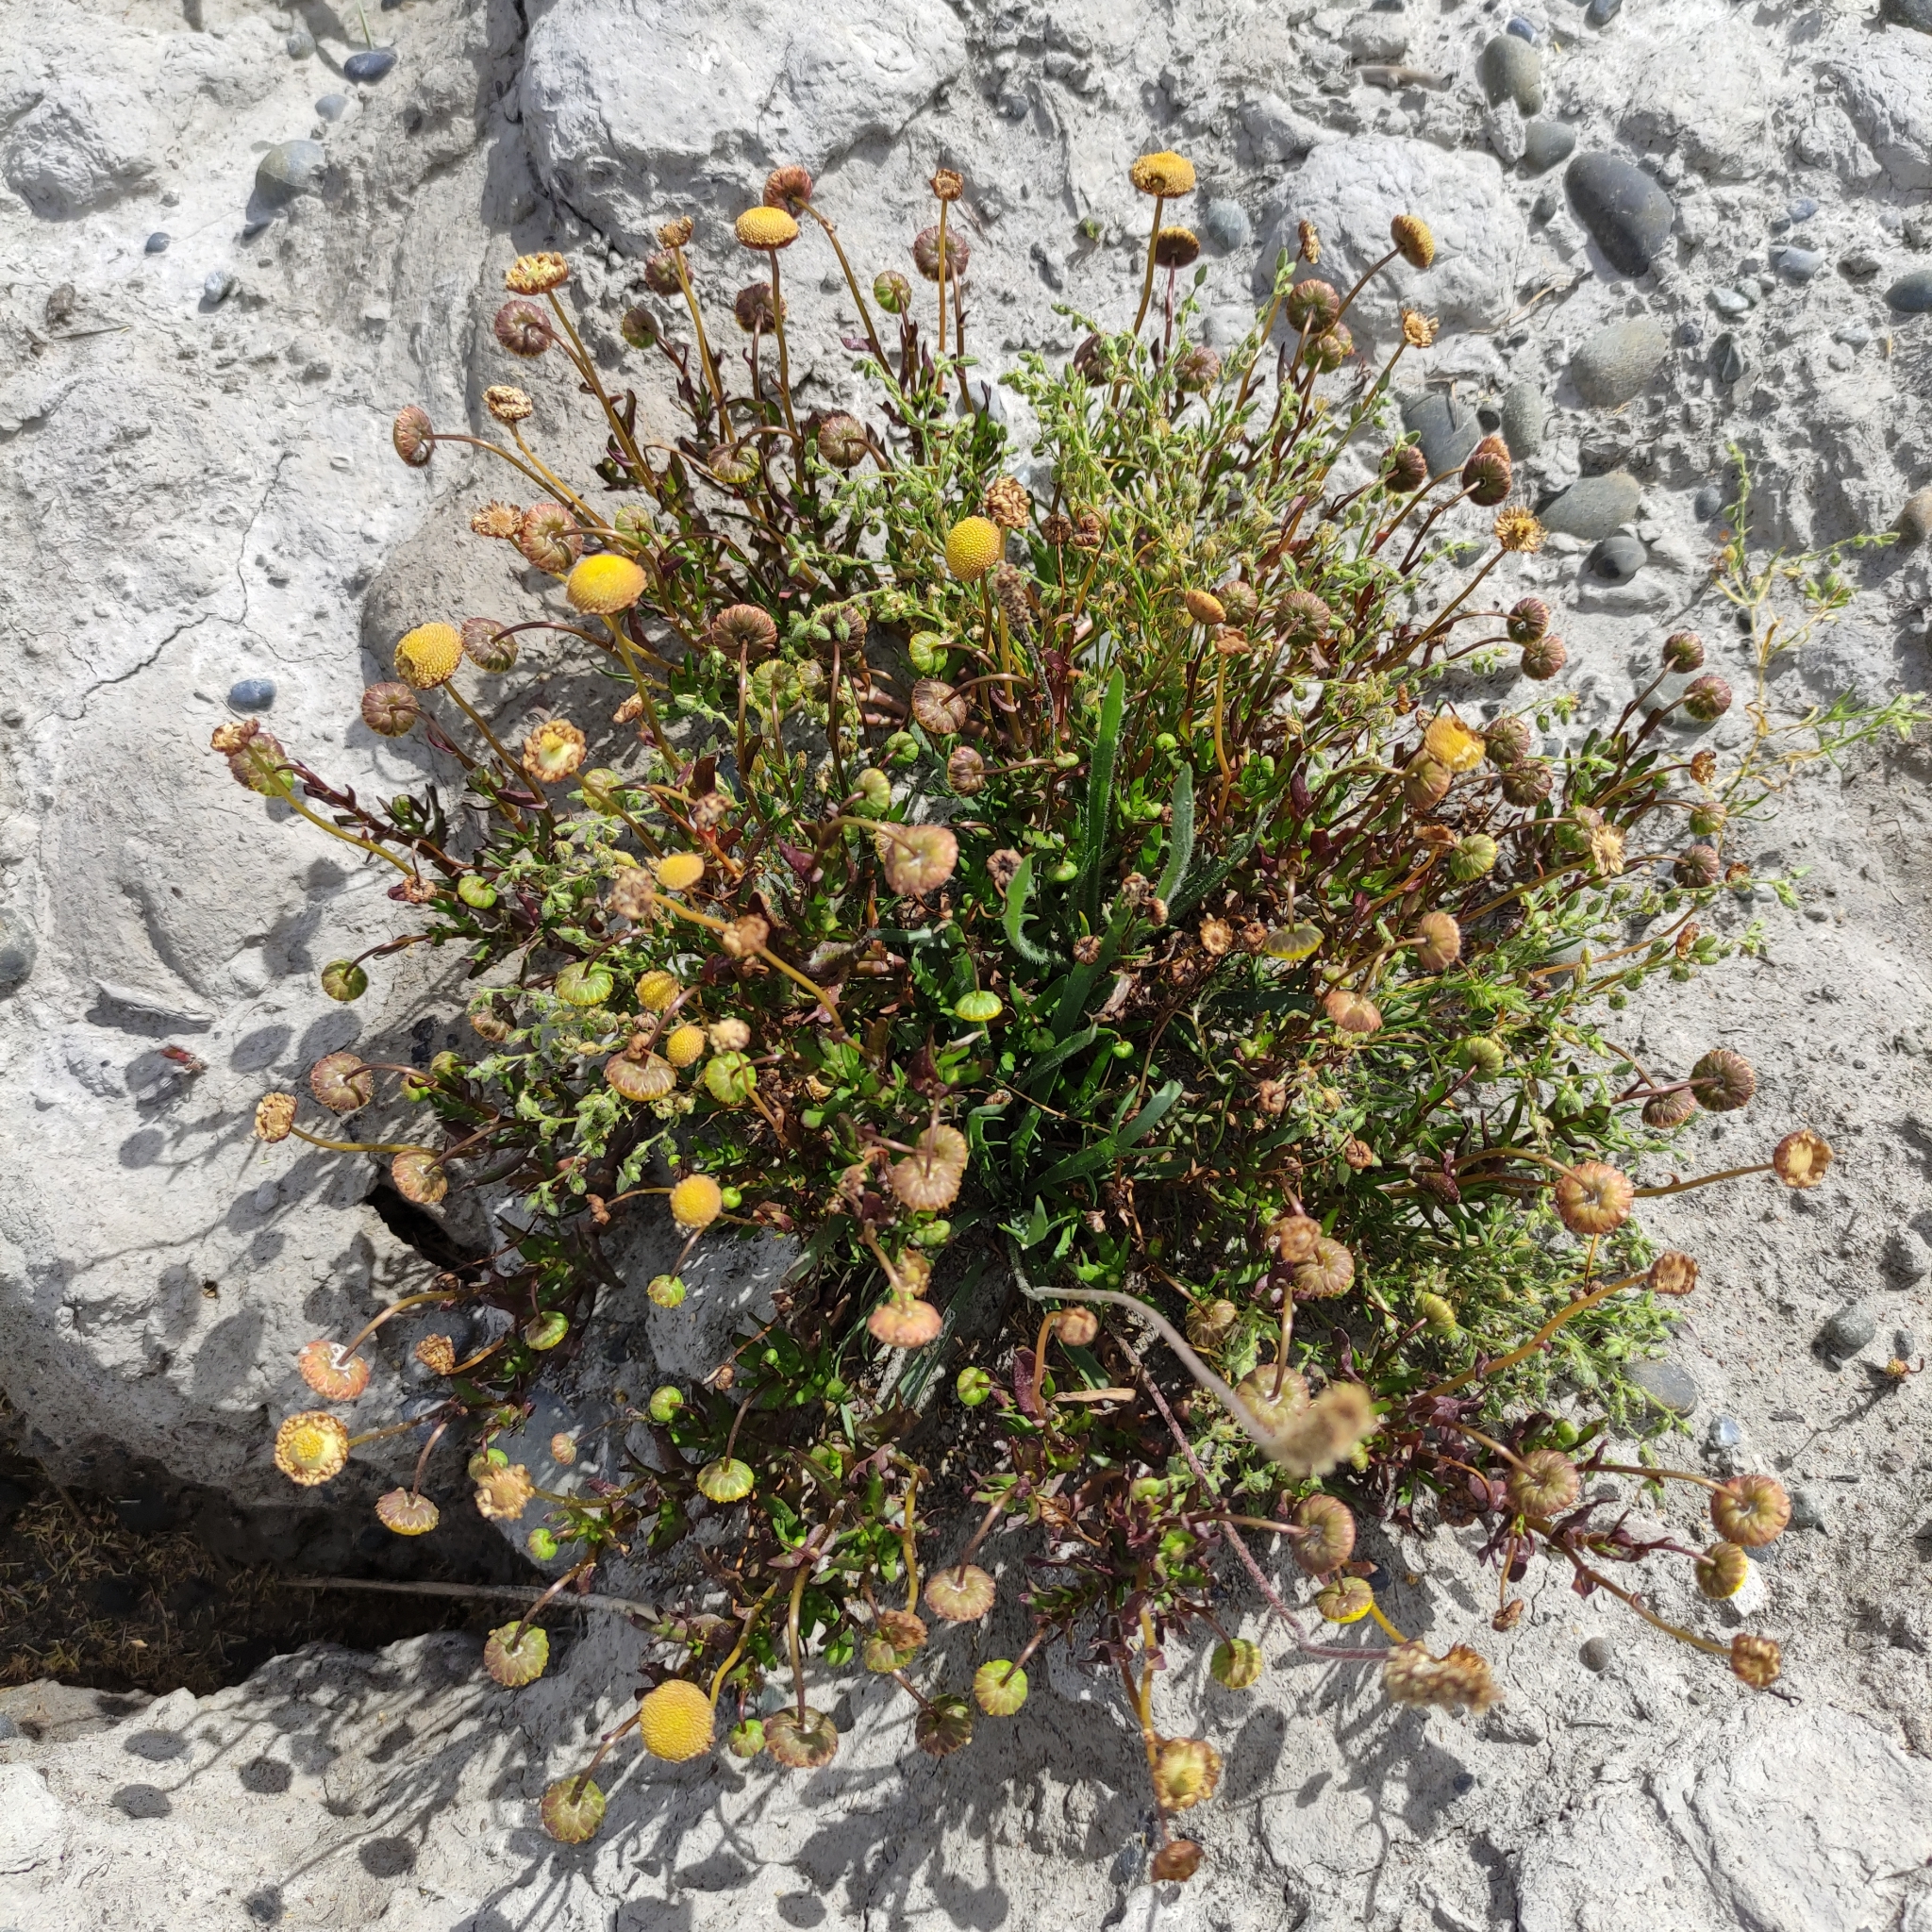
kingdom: Plantae
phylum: Tracheophyta
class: Magnoliopsida
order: Asterales
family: Asteraceae
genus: Cotula
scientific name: Cotula coronopifolia
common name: Buttonweed
